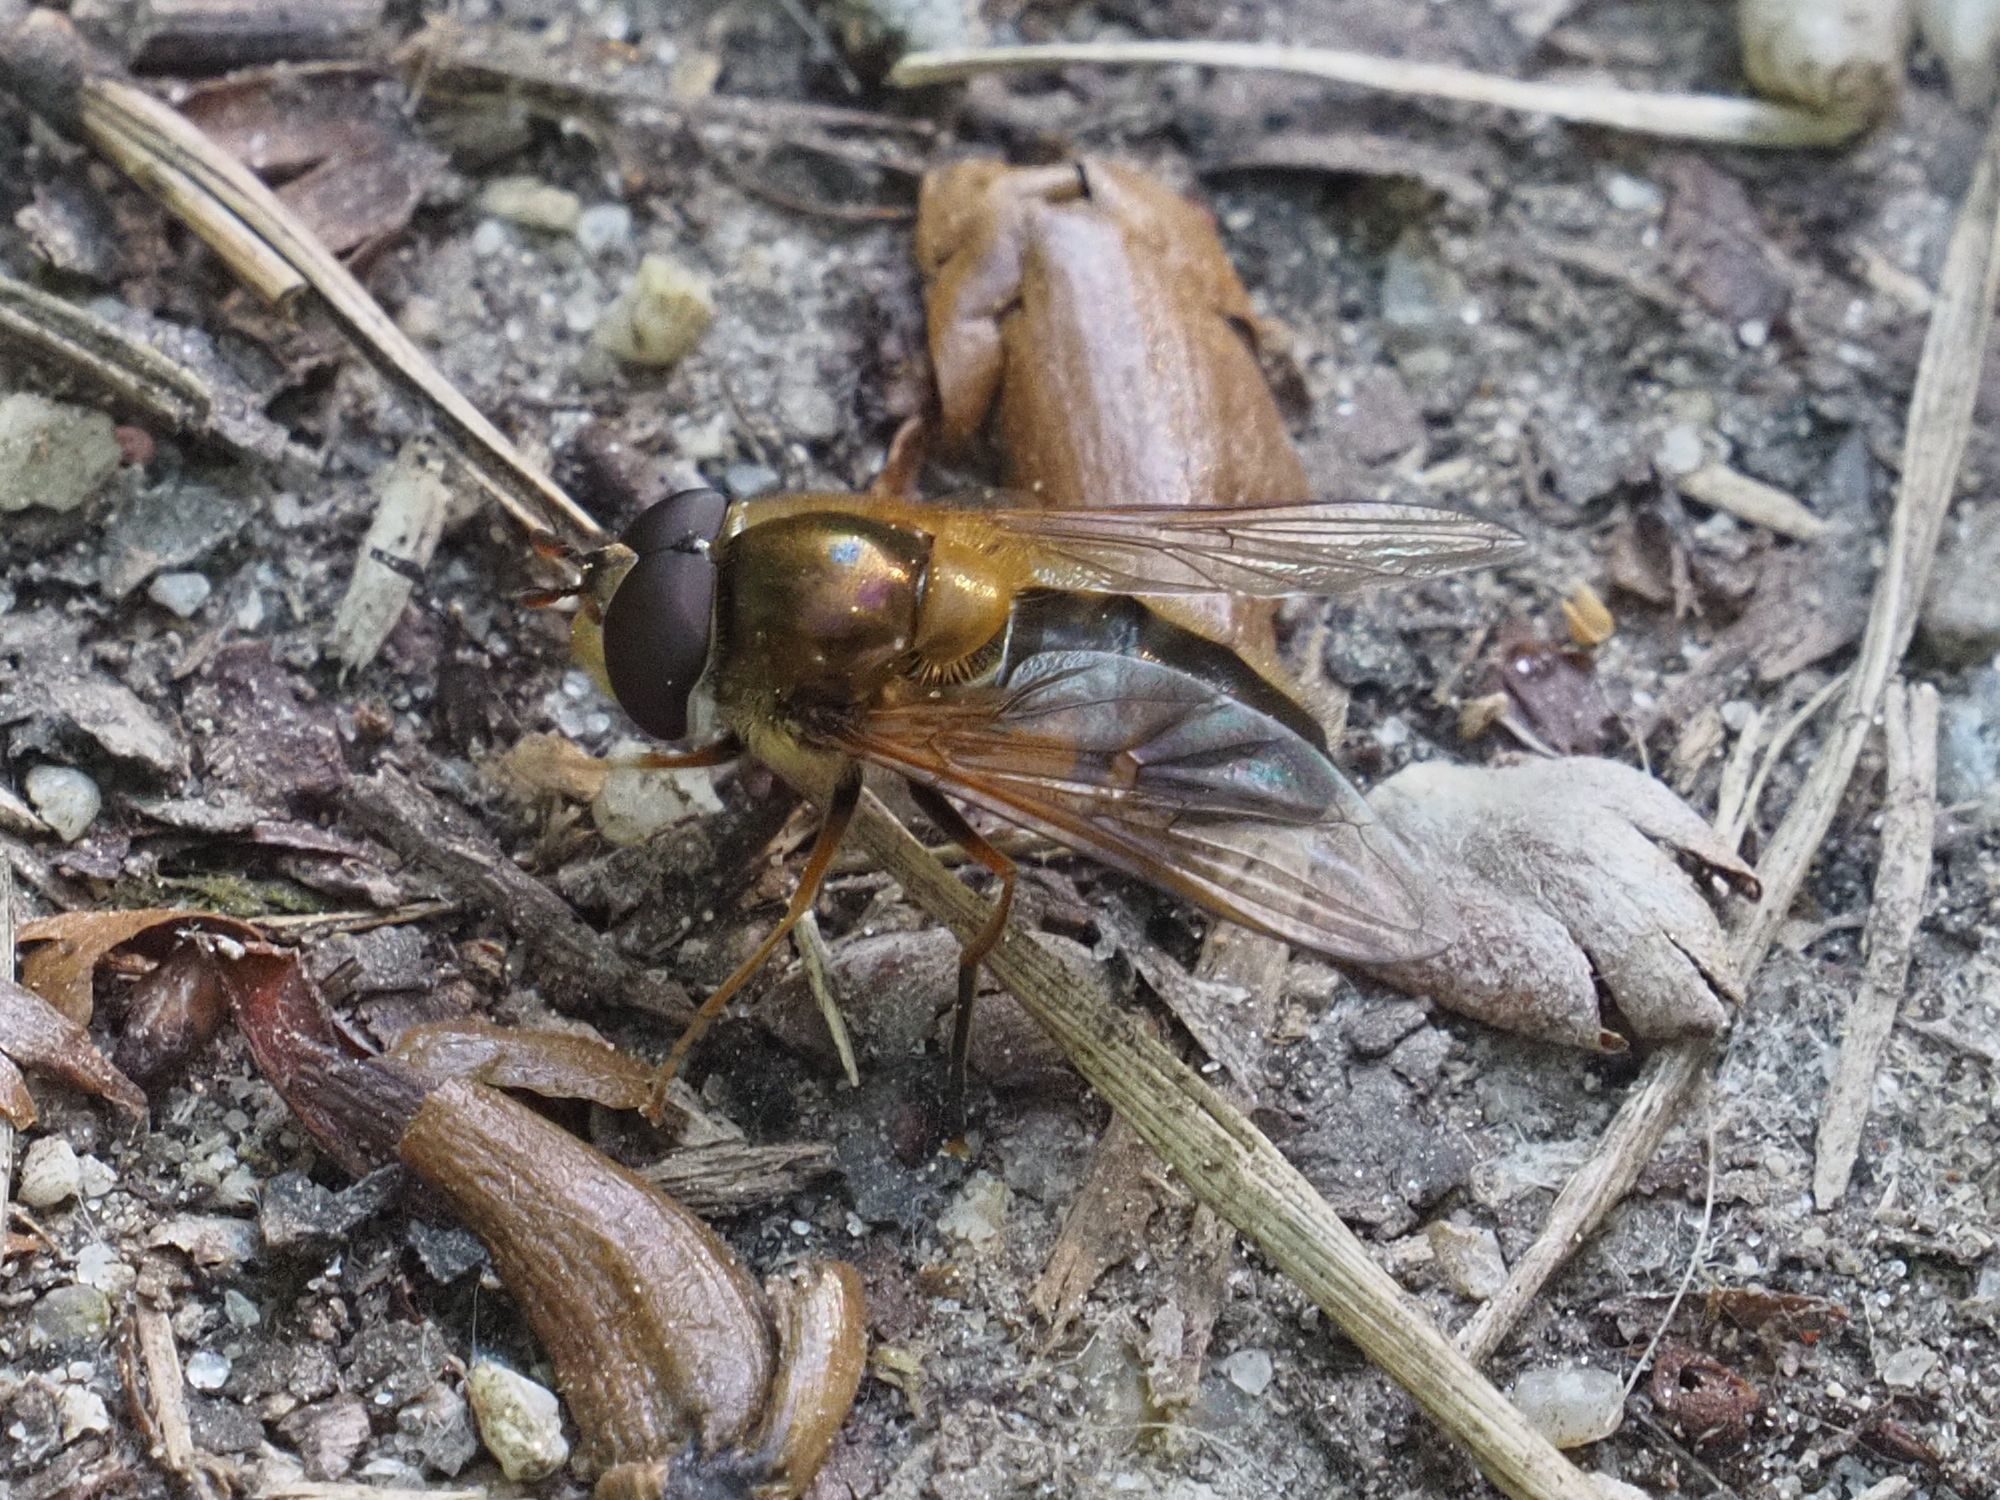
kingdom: Animalia
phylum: Arthropoda
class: Insecta
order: Diptera
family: Syrphidae
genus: Epistrophe
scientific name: Epistrophe eligans
